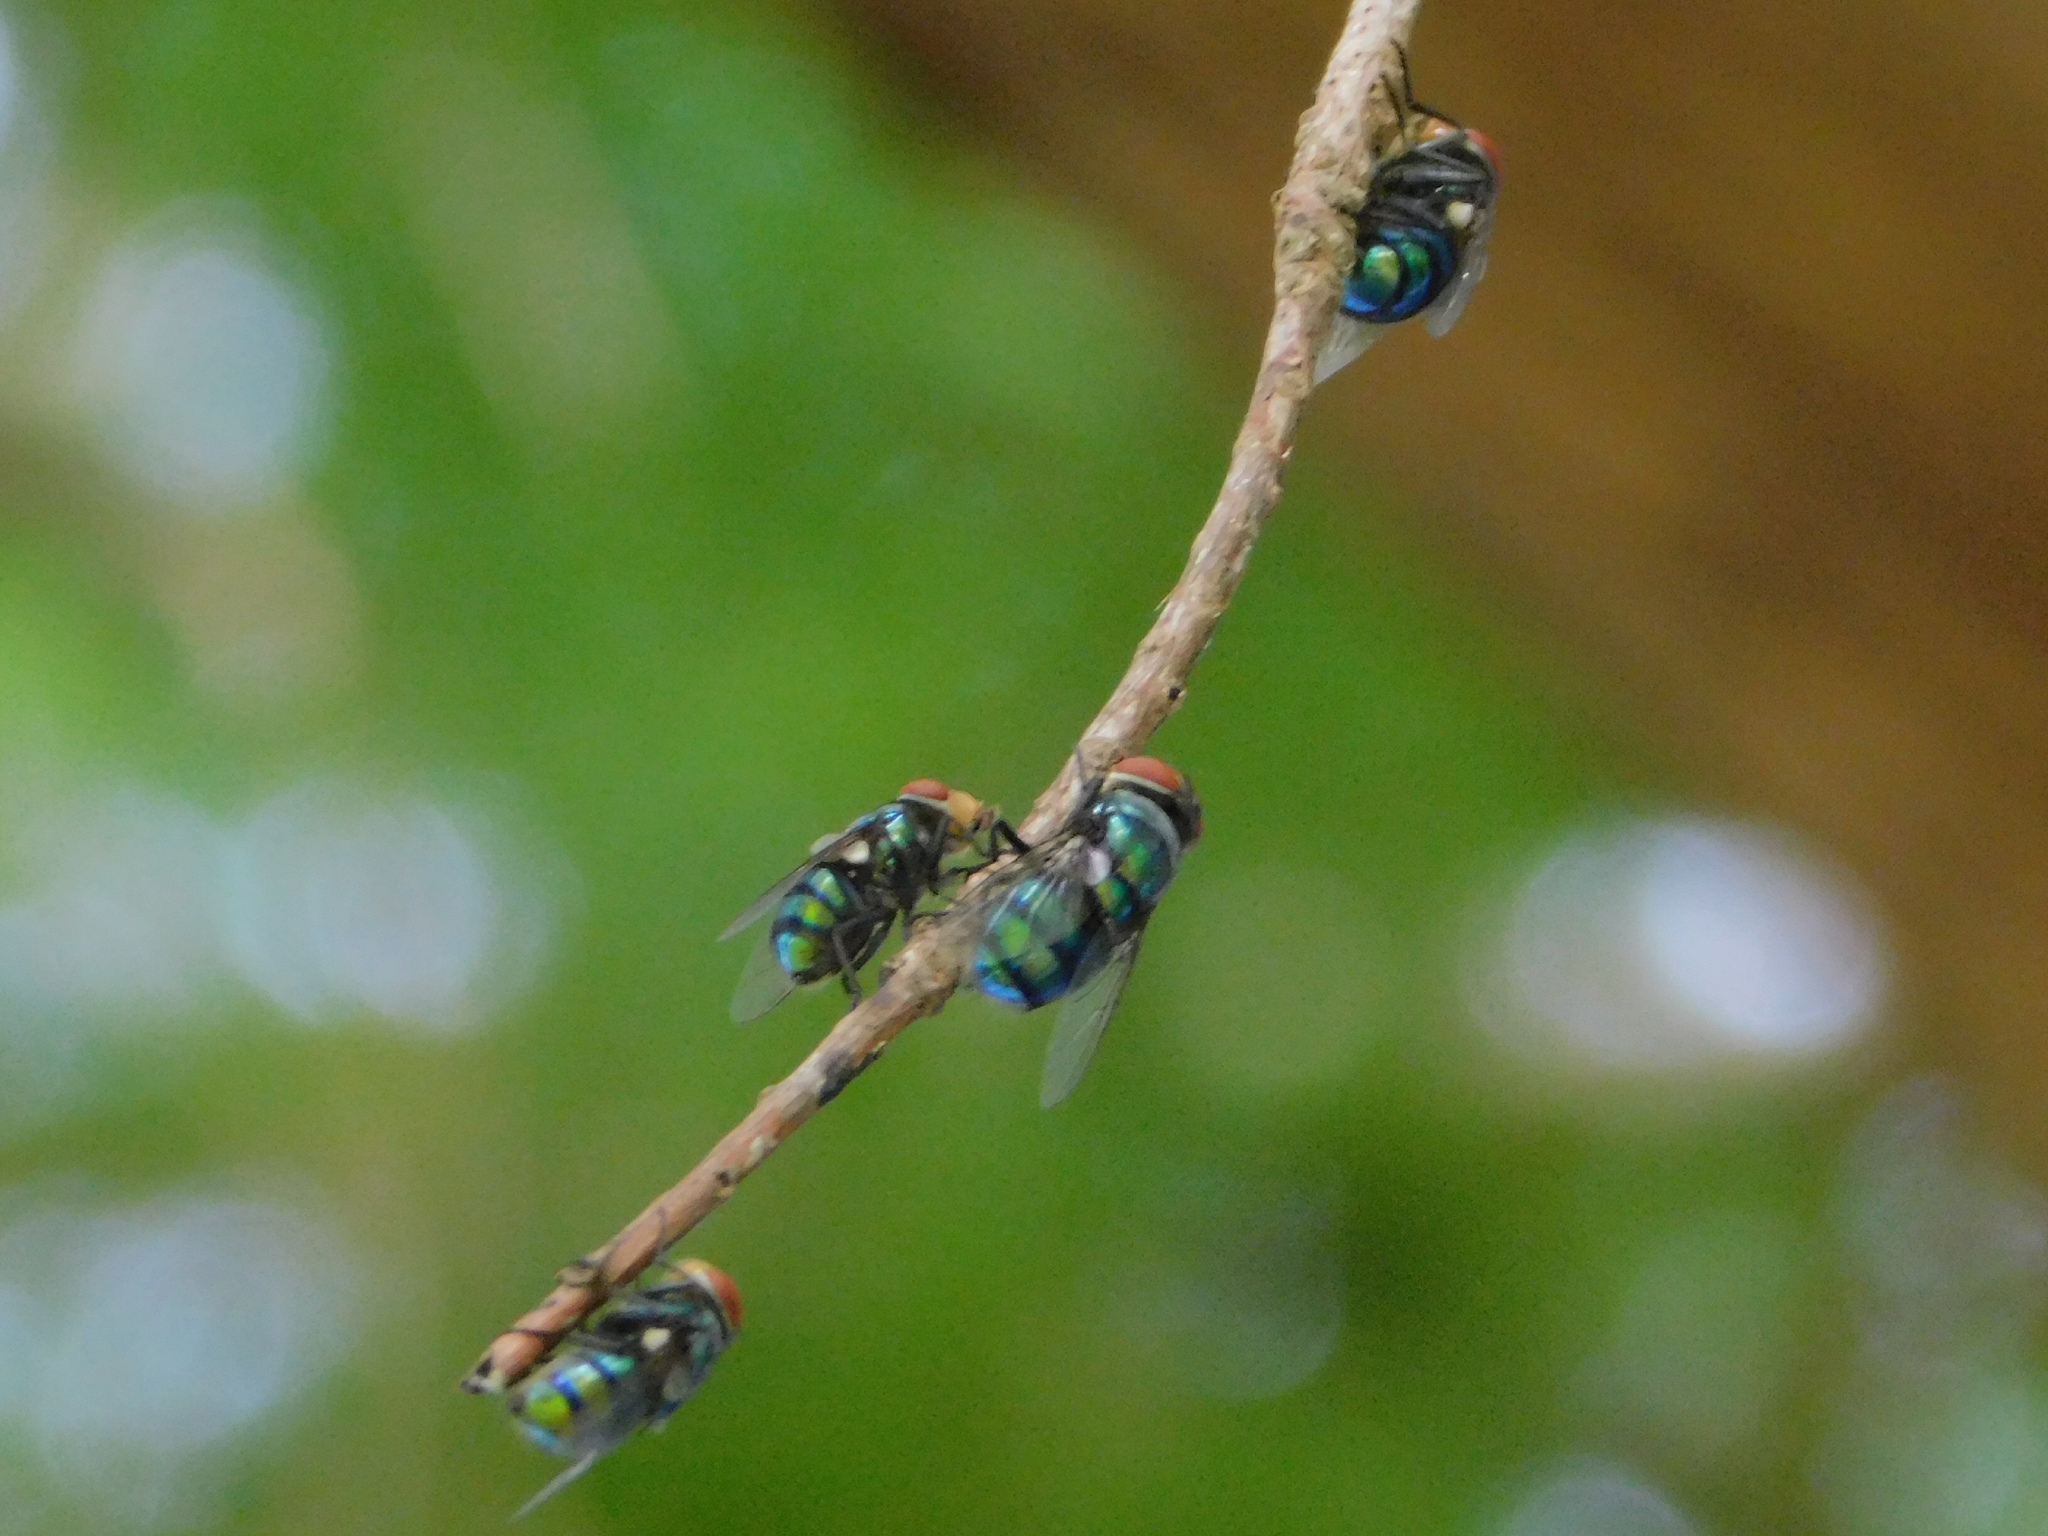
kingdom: Animalia
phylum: Arthropoda
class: Insecta
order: Diptera
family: Calliphoridae
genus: Chrysomya
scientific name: Chrysomya megacephala
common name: Blow fly
